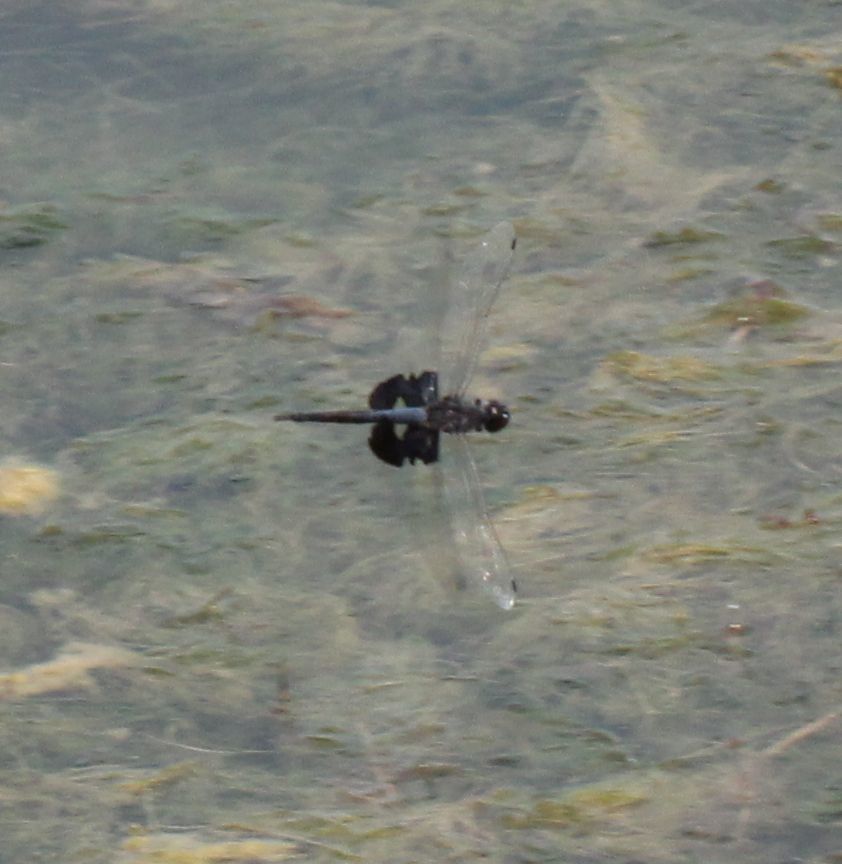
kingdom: Animalia
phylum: Arthropoda
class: Insecta
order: Odonata
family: Libellulidae
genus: Tramea
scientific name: Tramea lacerata
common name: Black saddlebags
